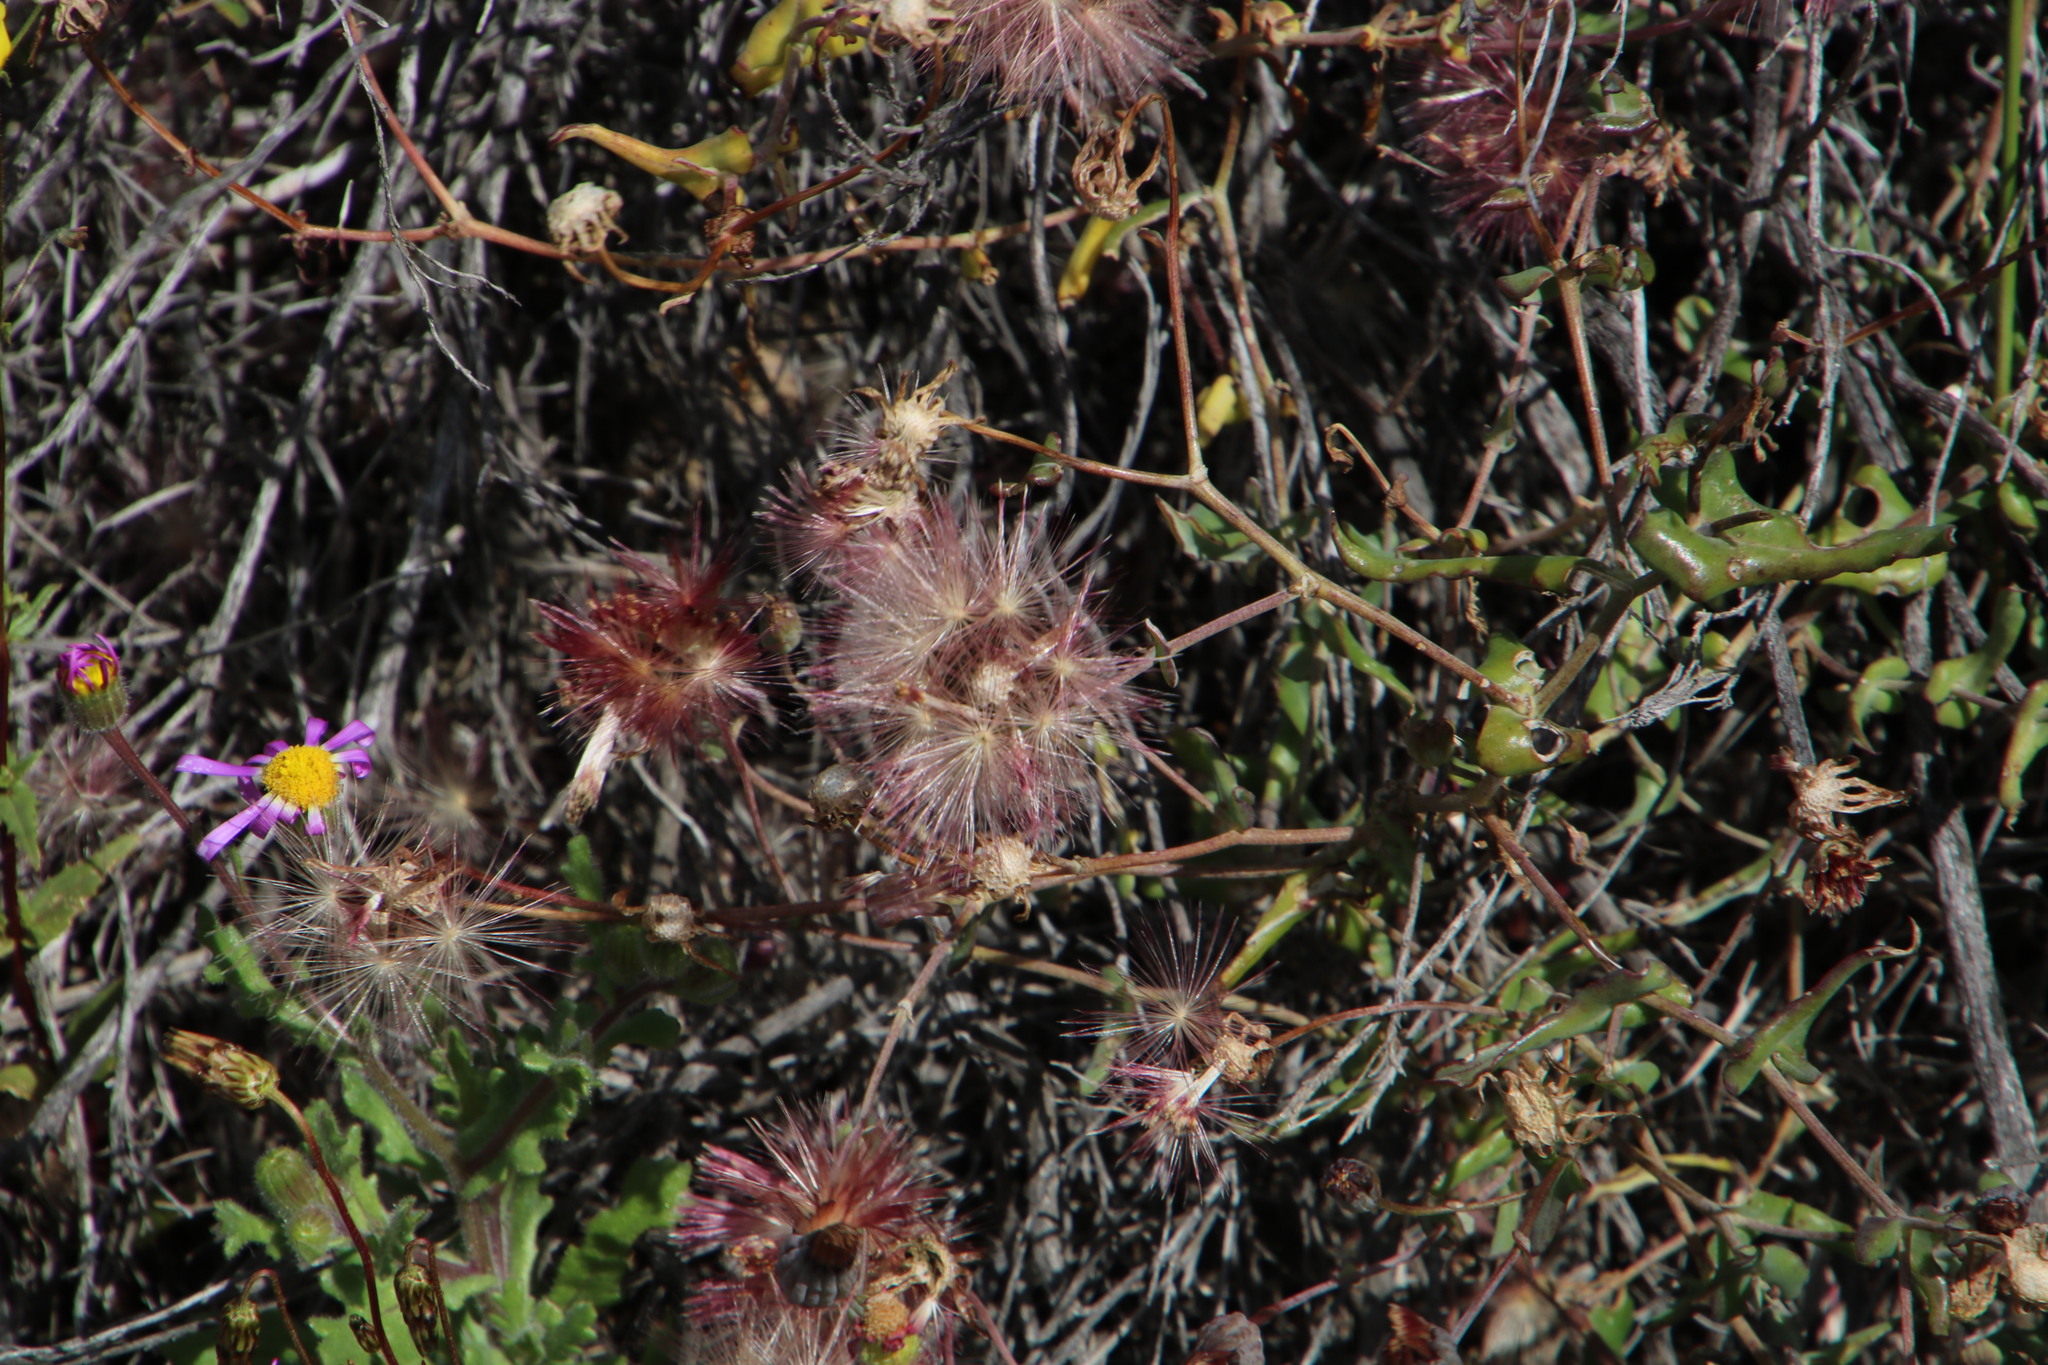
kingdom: Plantae
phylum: Tracheophyta
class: Magnoliopsida
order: Asterales
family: Asteraceae
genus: Othonna
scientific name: Othonna undulosa
